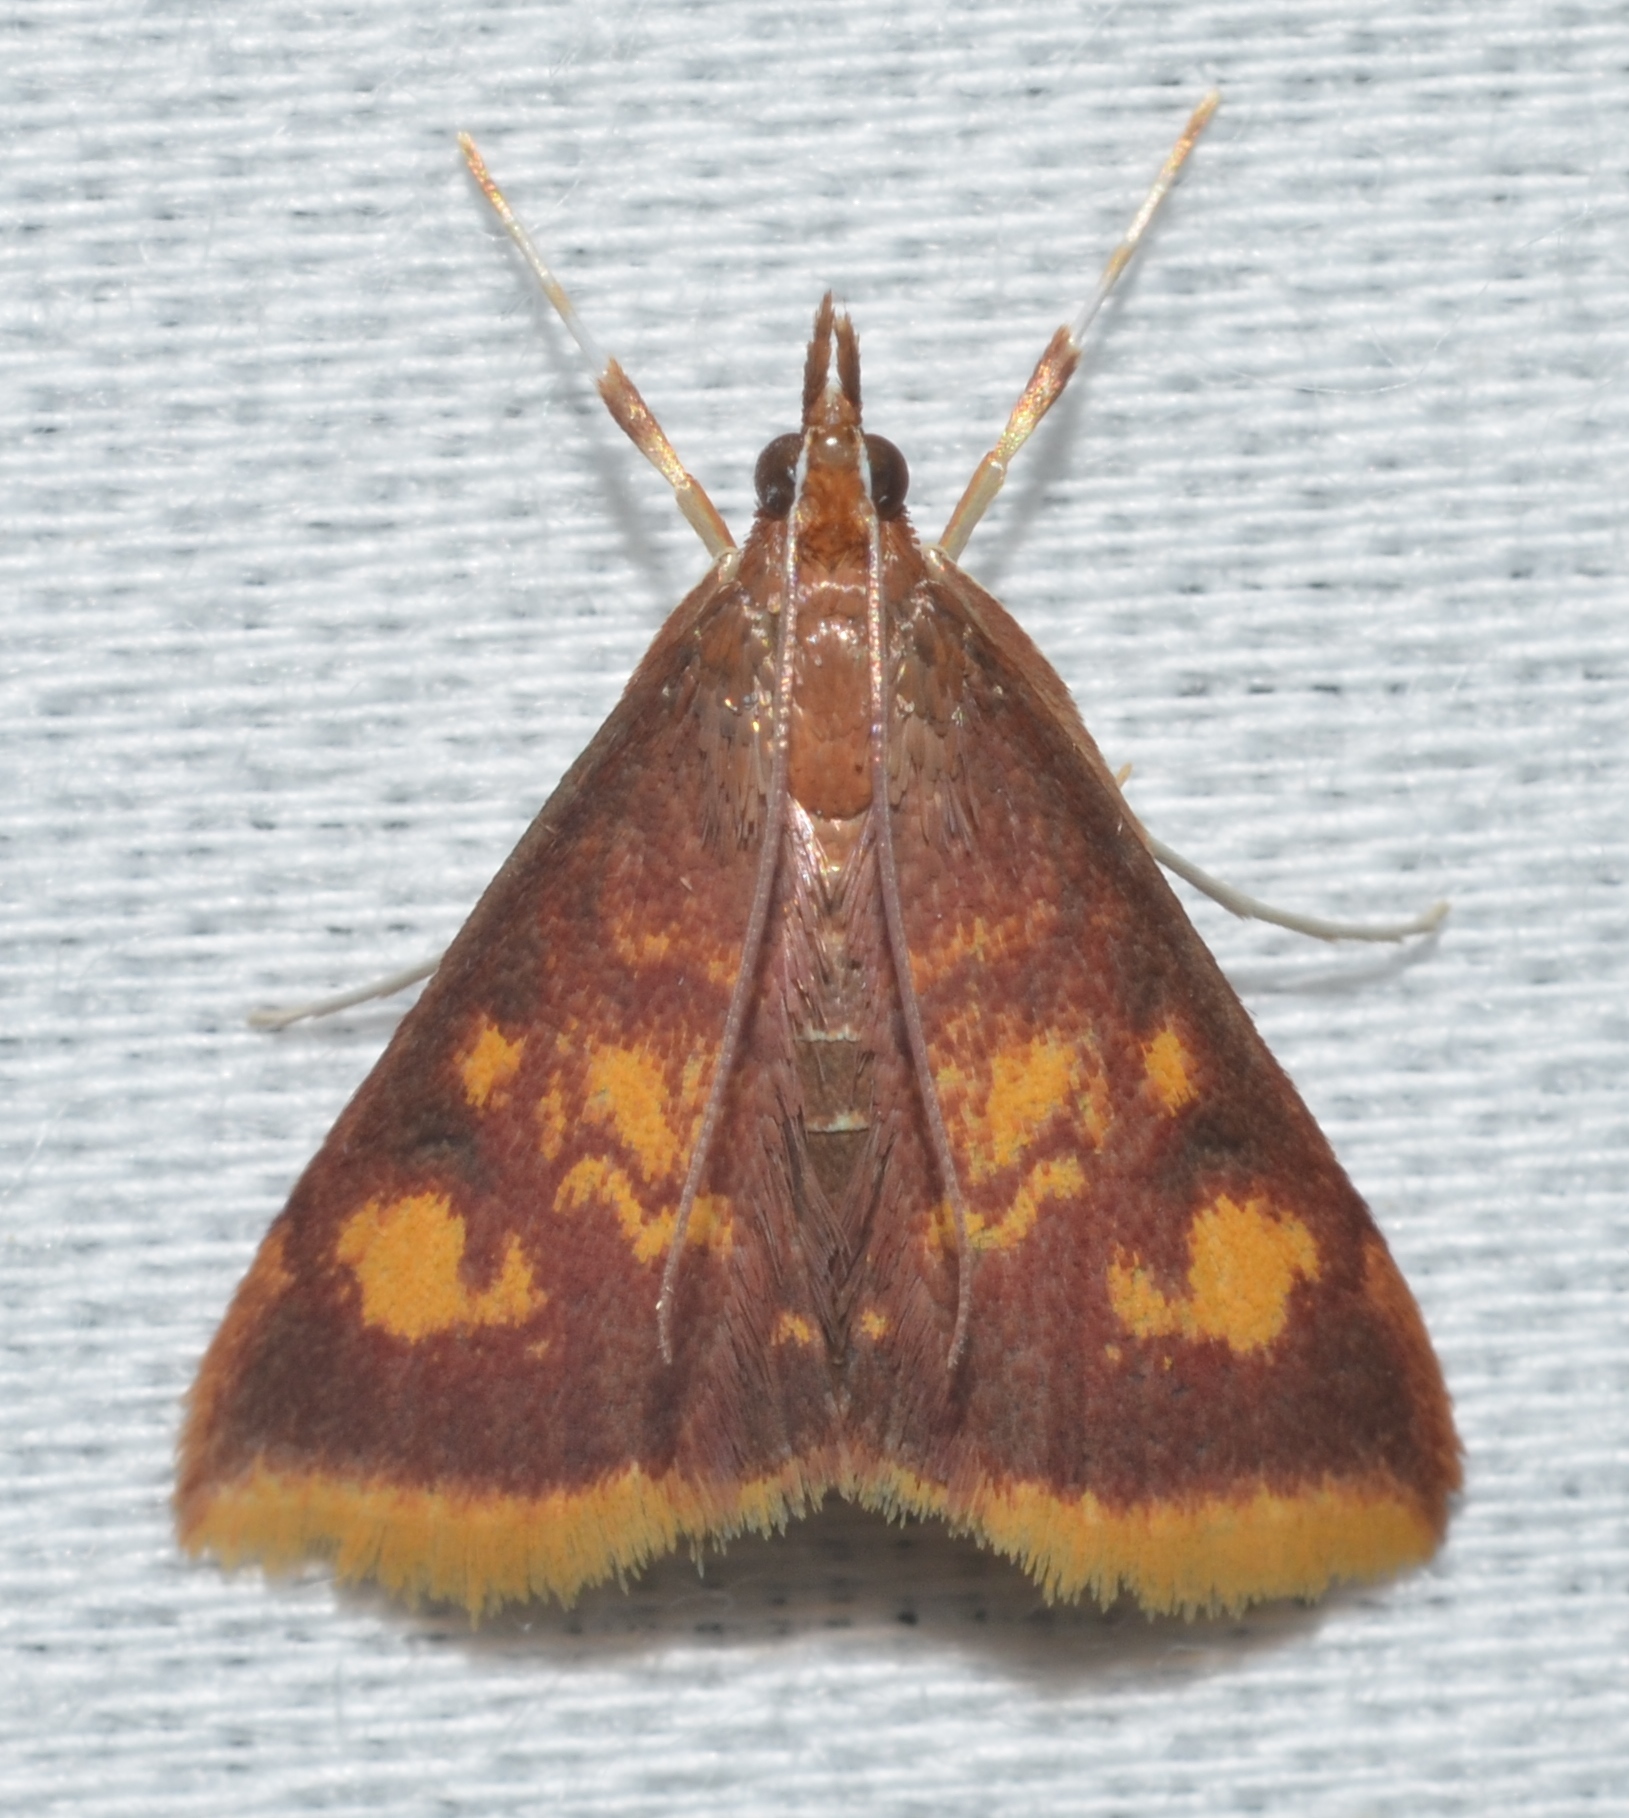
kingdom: Animalia
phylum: Arthropoda
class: Insecta
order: Lepidoptera
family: Crambidae
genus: Pyrausta
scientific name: Pyrausta acrionalis
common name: Mint-loving pyrausta moth
